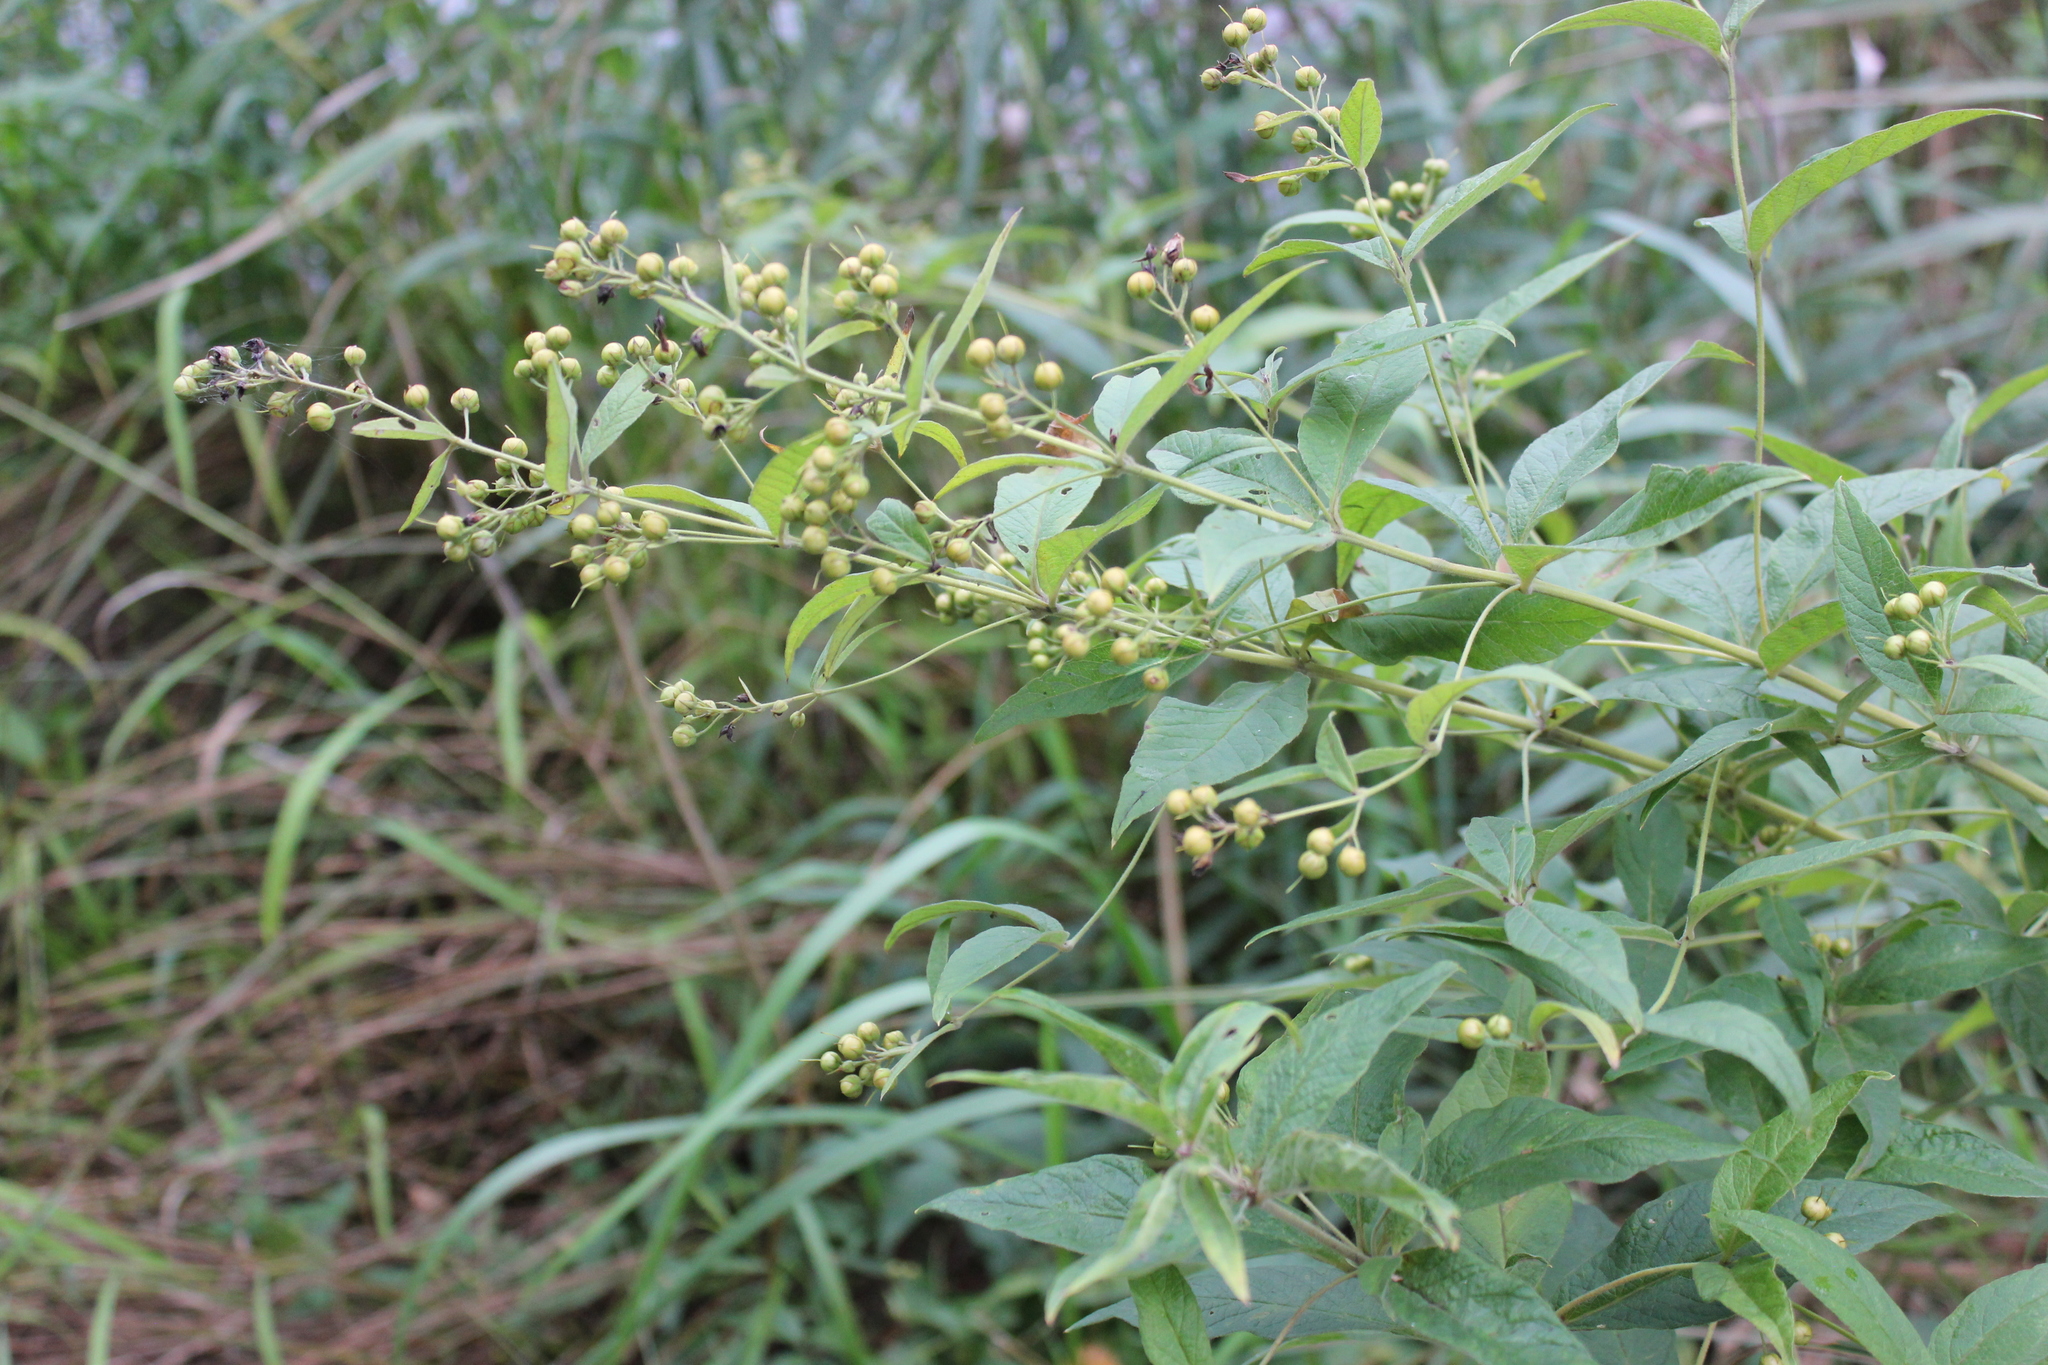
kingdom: Plantae
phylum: Tracheophyta
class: Magnoliopsida
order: Ericales
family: Primulaceae
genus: Lysimachia
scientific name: Lysimachia vulgaris
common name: Yellow loosestrife
